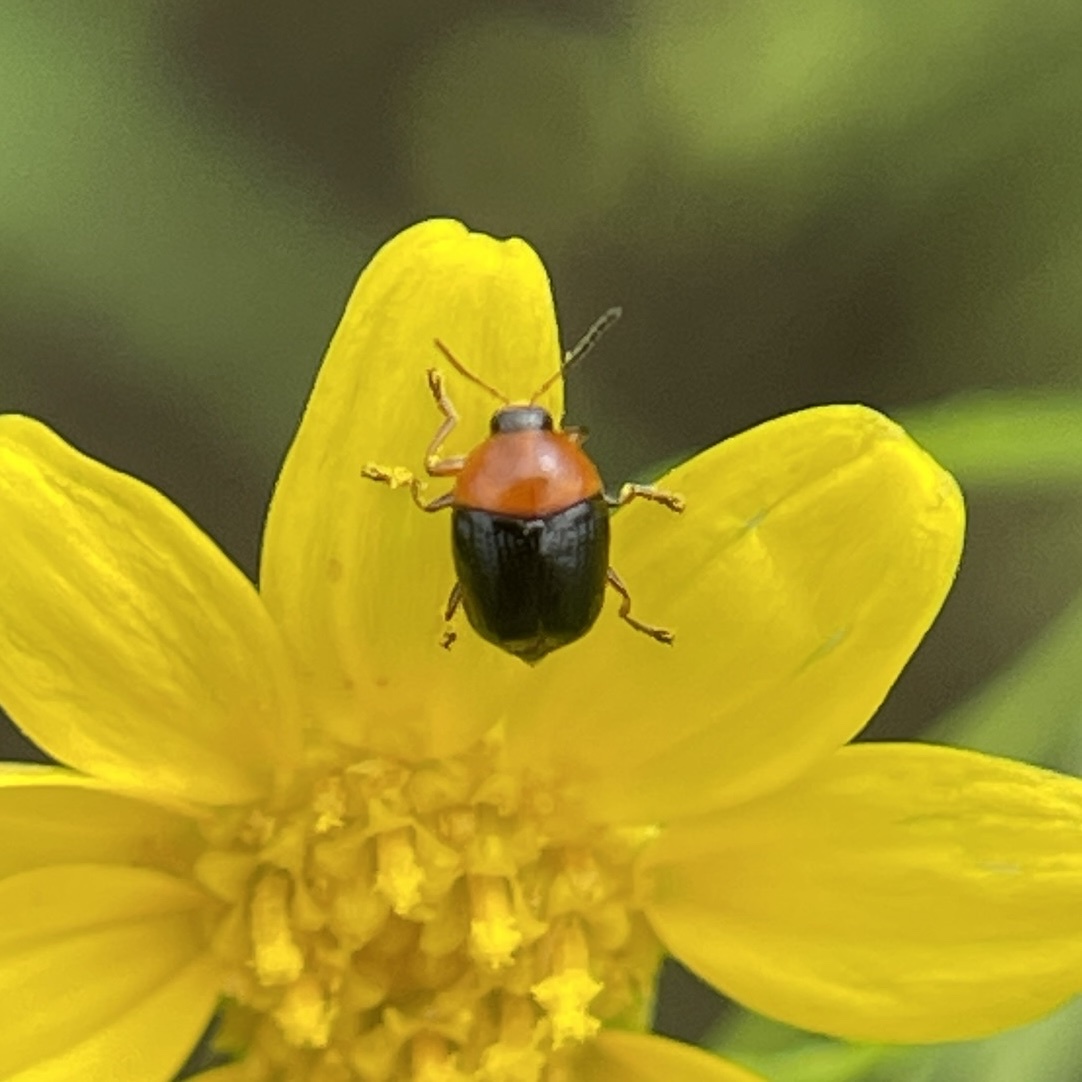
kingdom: Animalia
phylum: Arthropoda
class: Insecta
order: Coleoptera
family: Chrysomelidae
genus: Lexiphanes
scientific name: Lexiphanes teapensis
